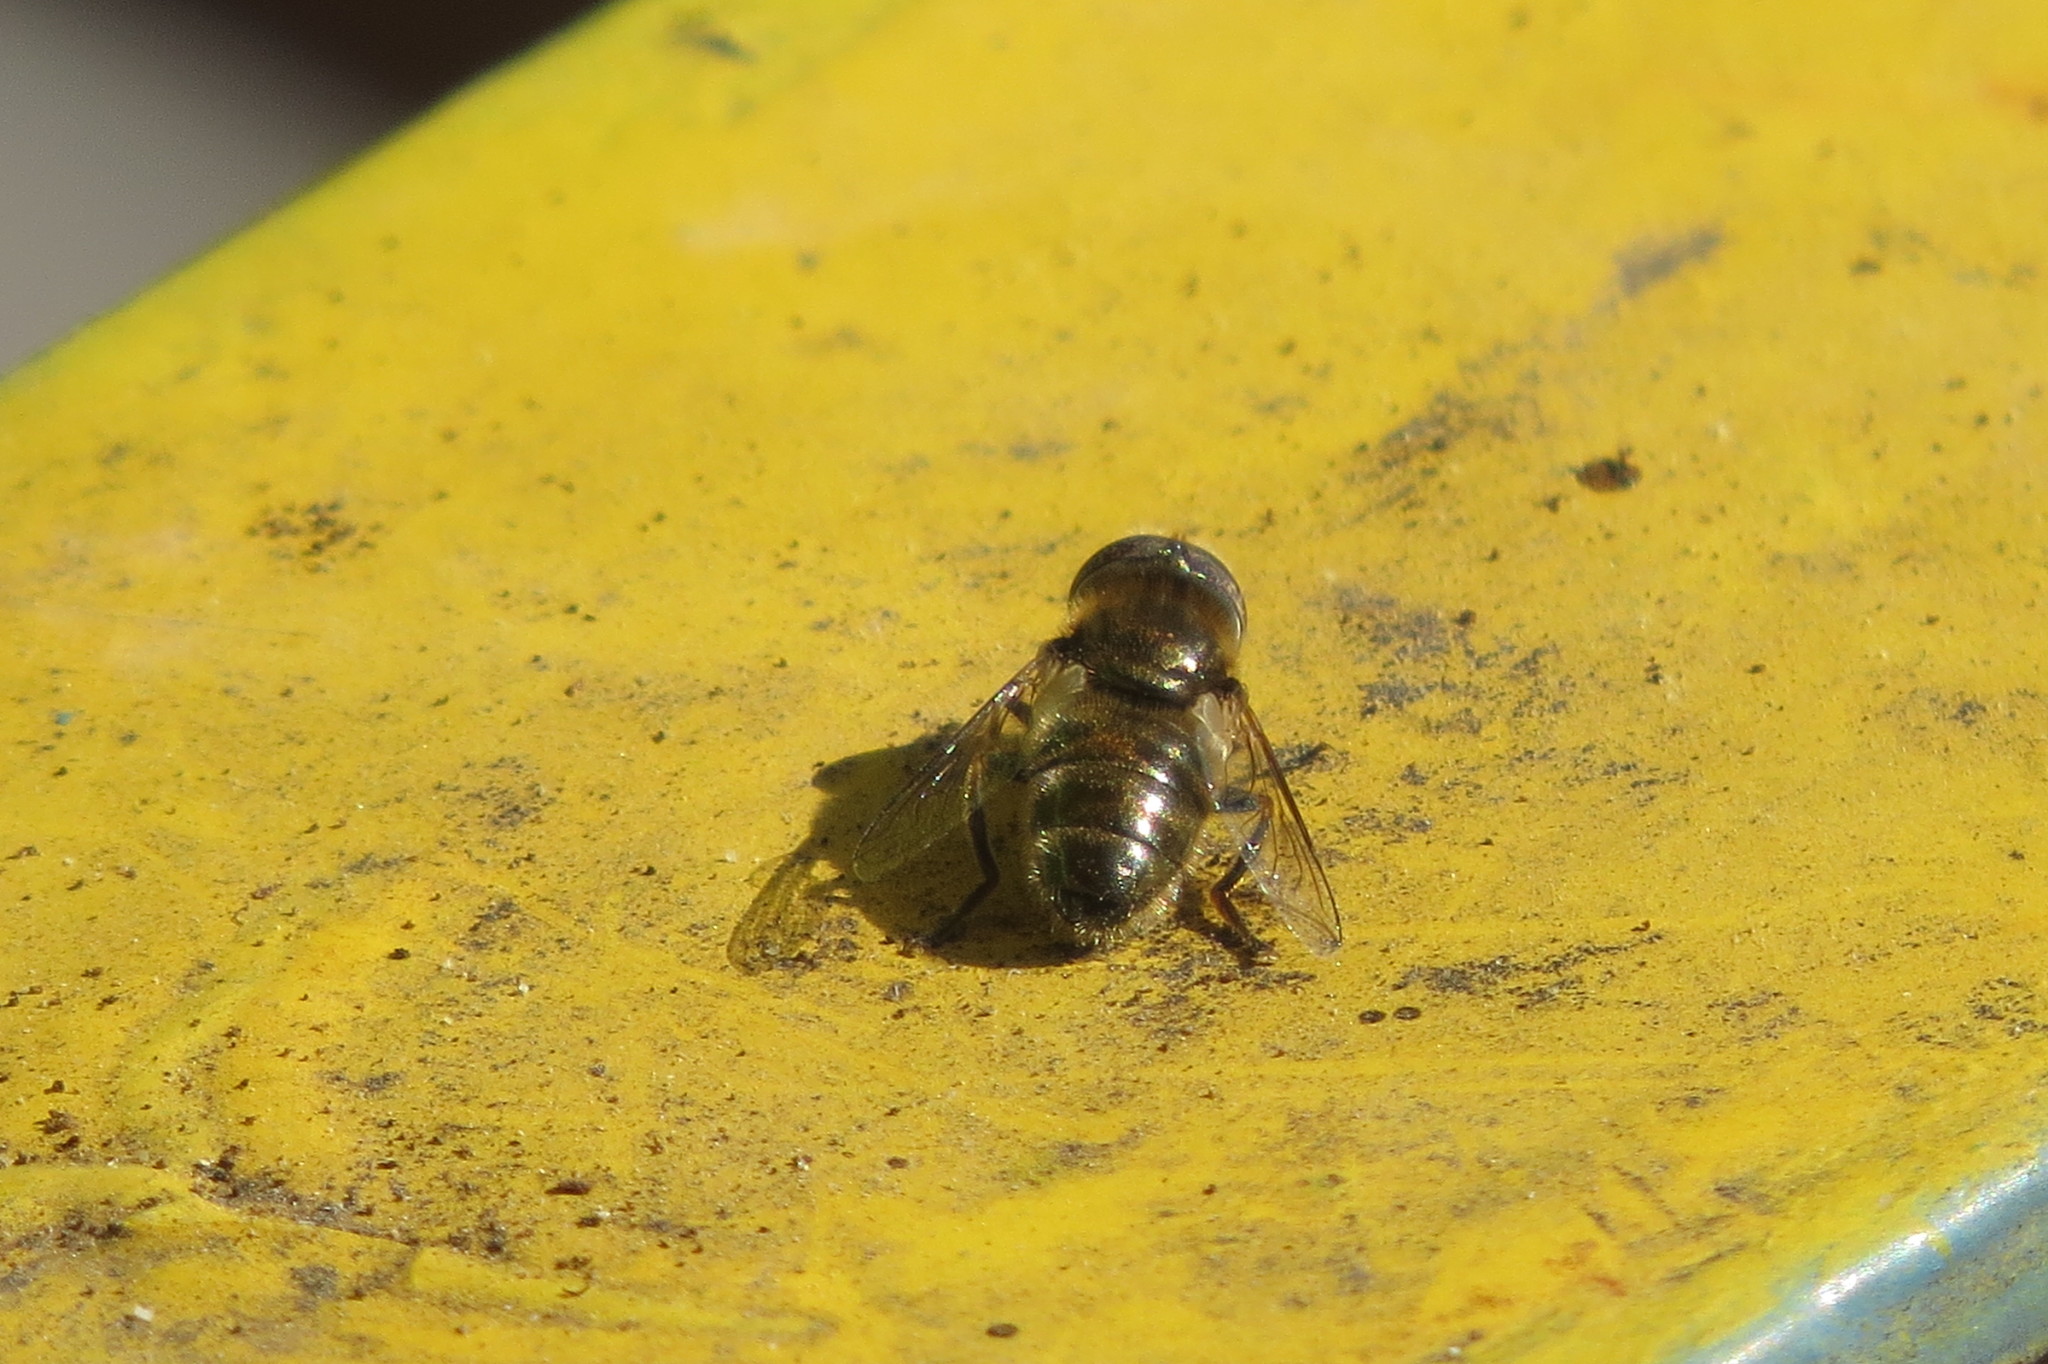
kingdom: Animalia
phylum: Arthropoda
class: Insecta
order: Diptera
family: Syrphidae
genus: Eristalinus
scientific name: Eristalinus aeneus
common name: Syrphid fly
